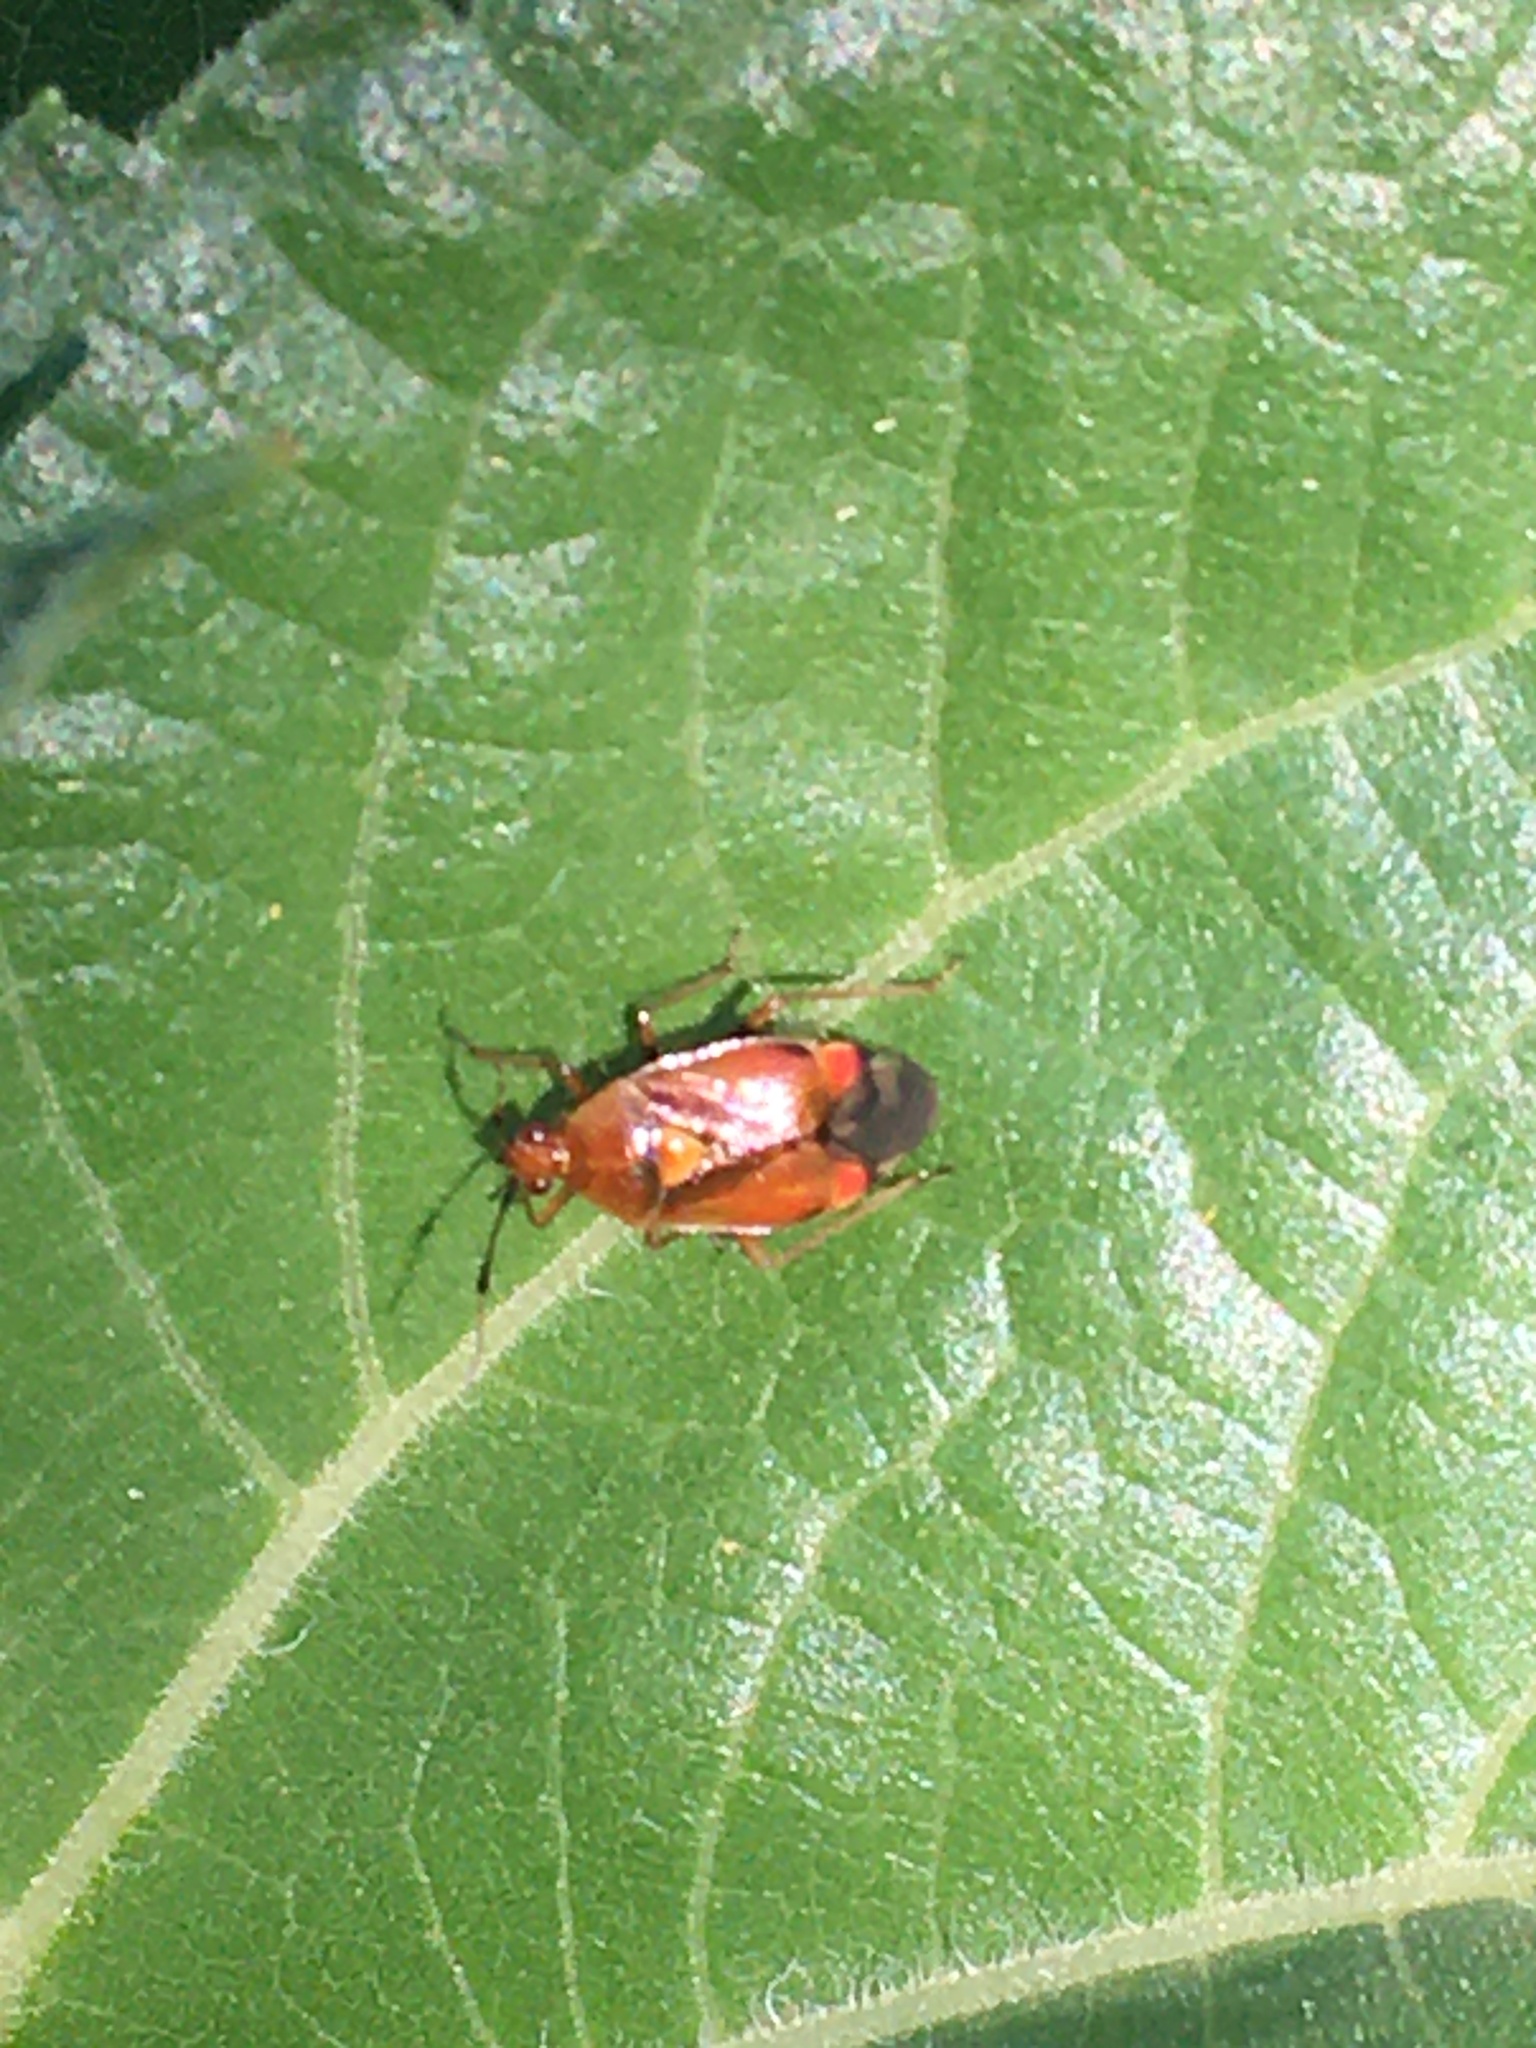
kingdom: Animalia
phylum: Arthropoda
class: Insecta
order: Hemiptera
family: Miridae
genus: Deraeocoris
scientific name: Deraeocoris ruber
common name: Plant bug
